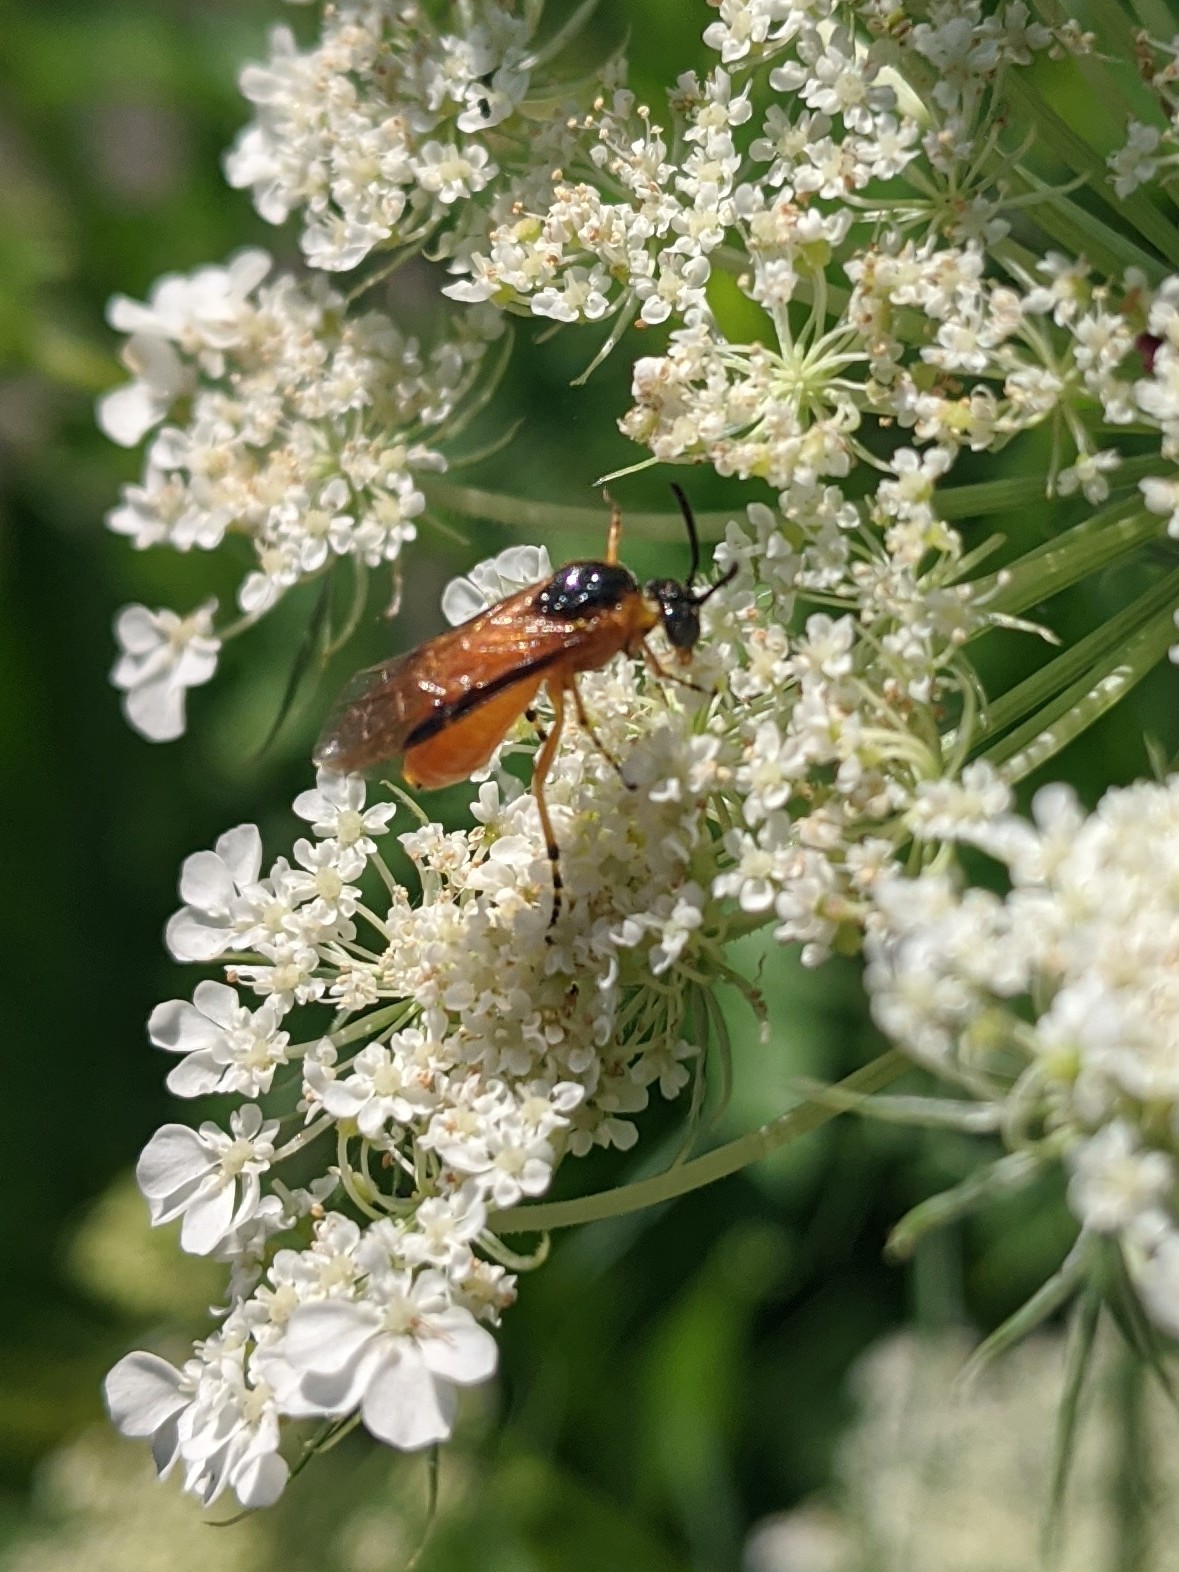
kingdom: Animalia
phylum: Arthropoda
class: Insecta
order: Hymenoptera
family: Argidae
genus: Arge
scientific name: Arge ochropus
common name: Argid sawfly
